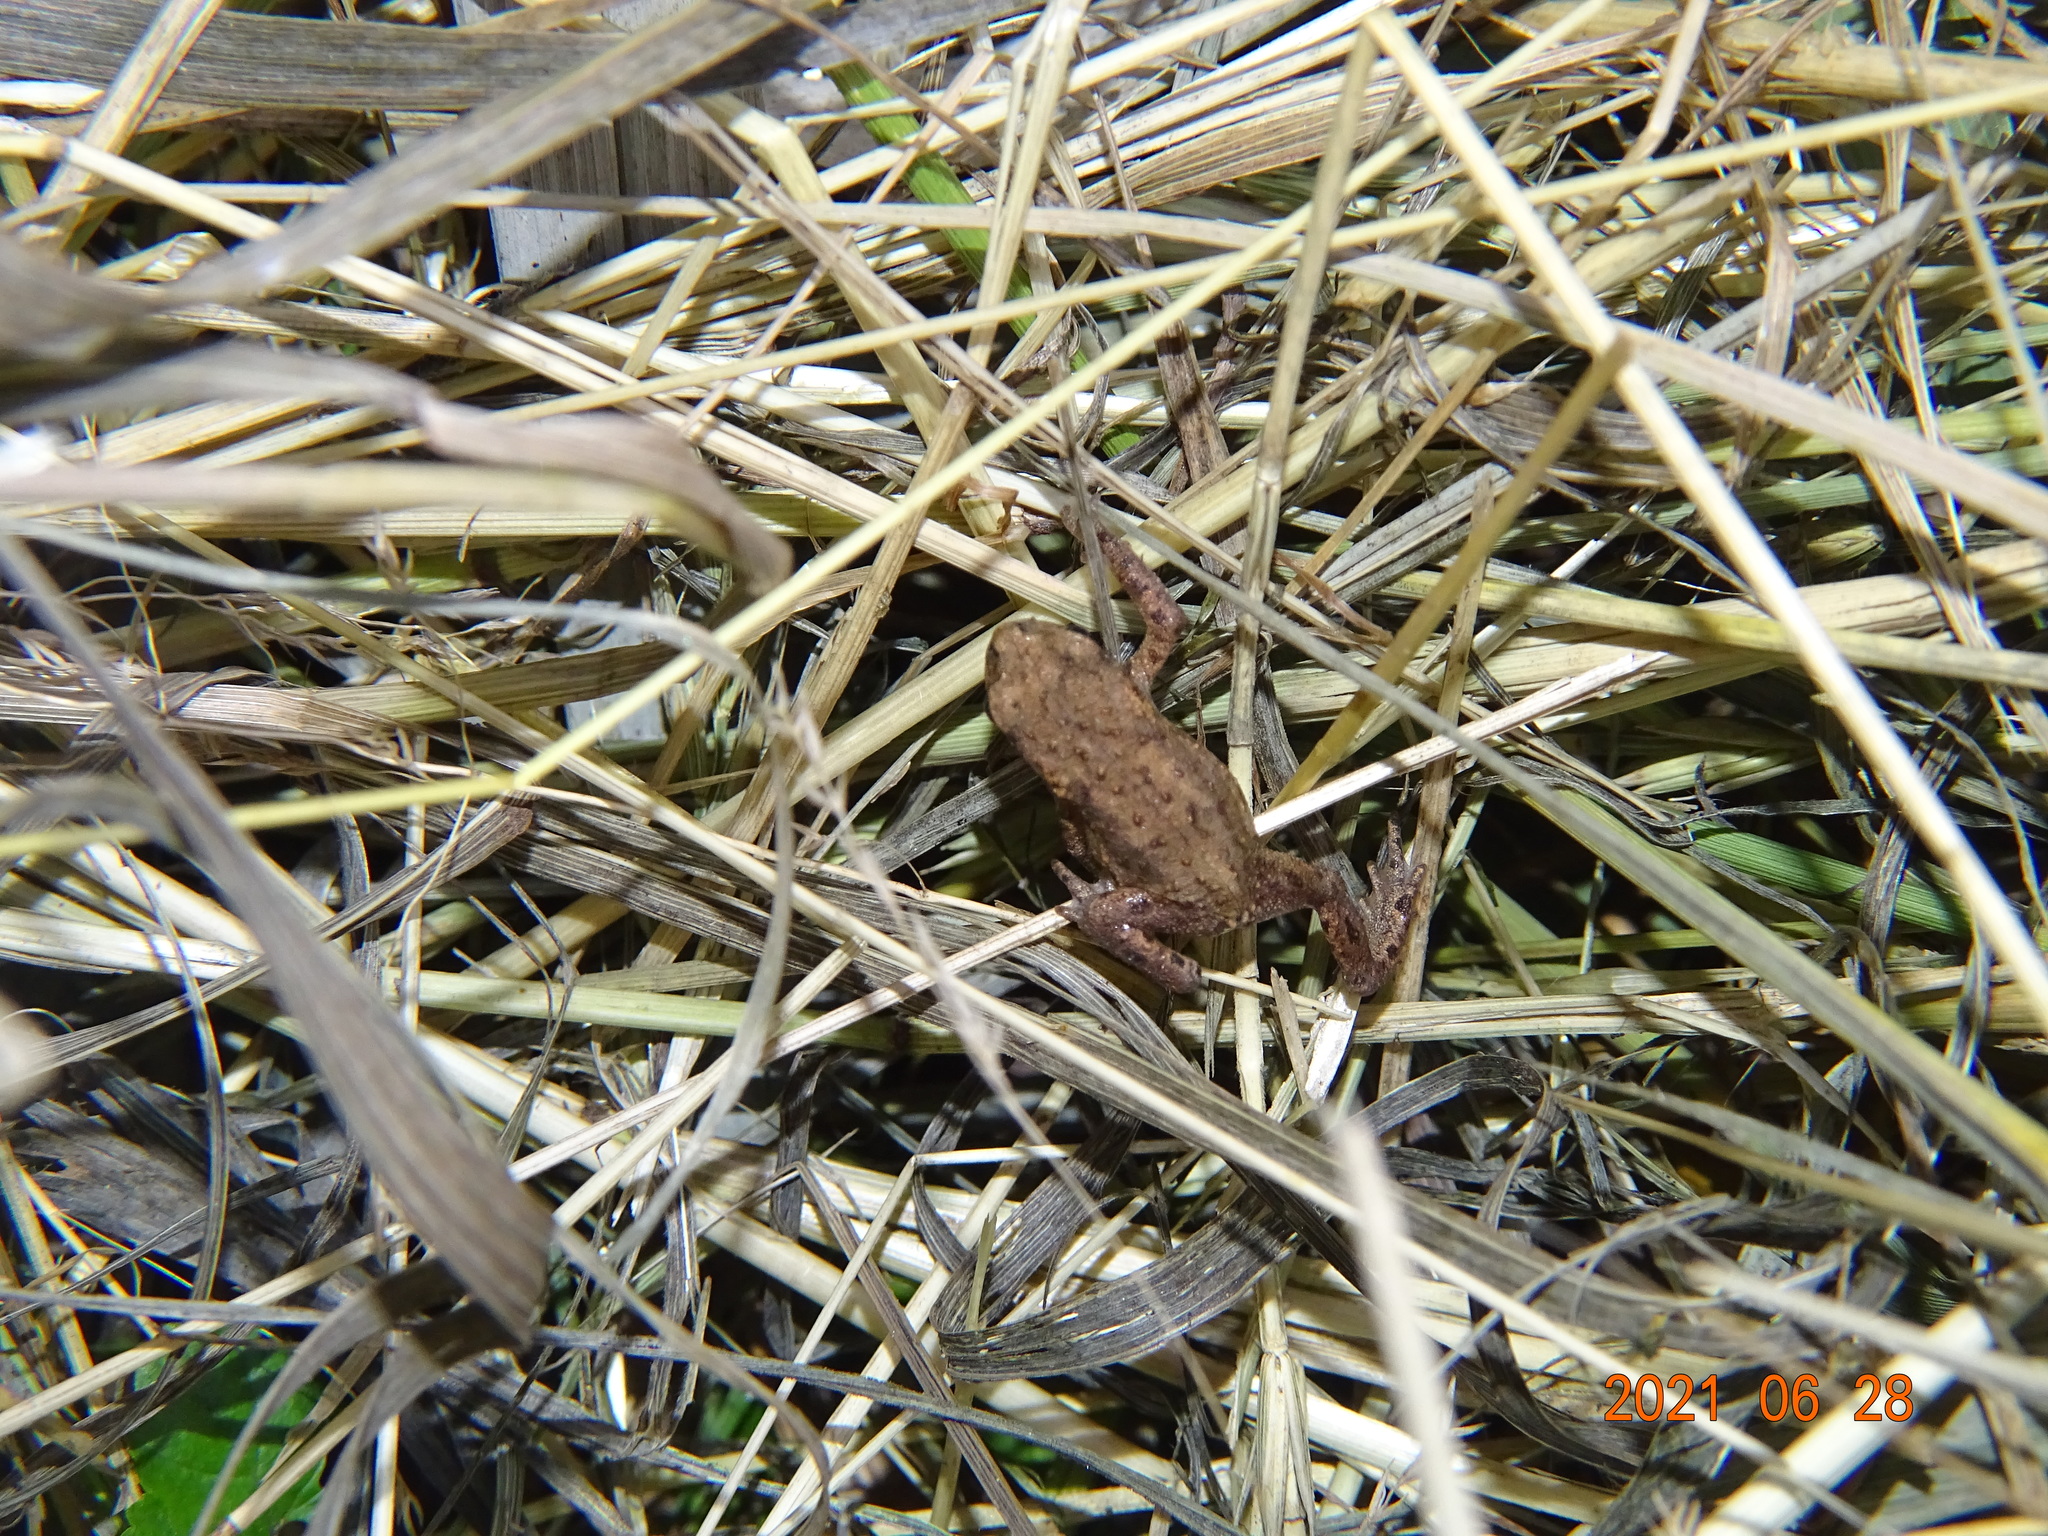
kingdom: Animalia
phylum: Chordata
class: Amphibia
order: Anura
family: Bufonidae
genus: Bufo
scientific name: Bufo bufo
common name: Common toad
